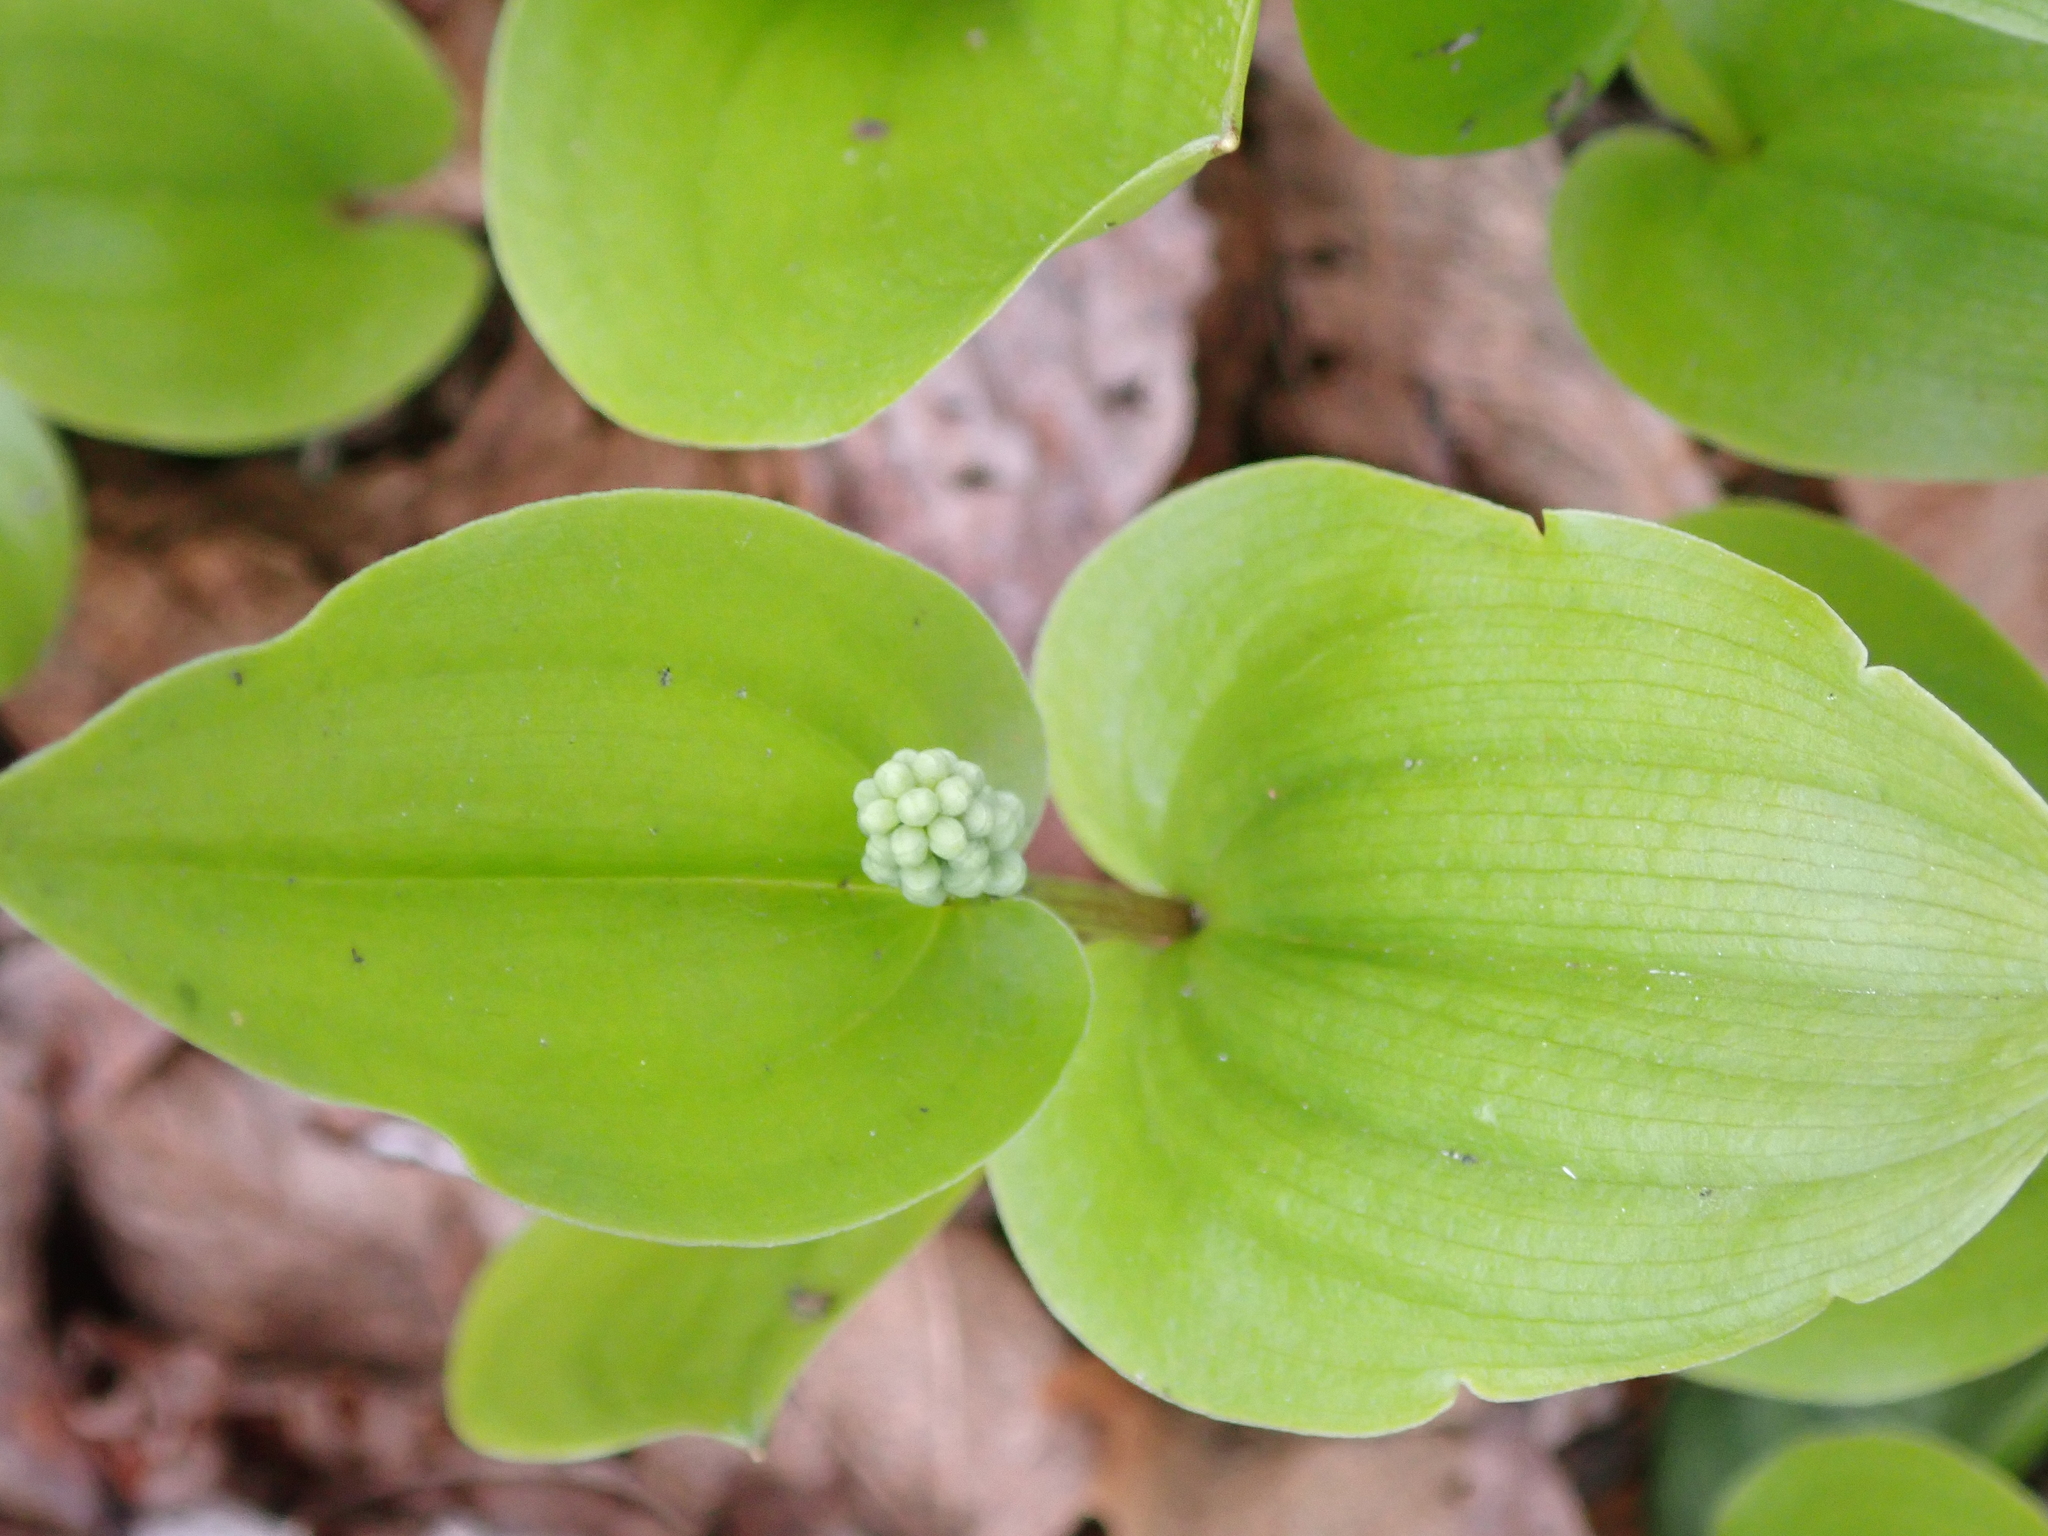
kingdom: Plantae
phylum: Tracheophyta
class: Liliopsida
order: Asparagales
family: Asparagaceae
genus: Maianthemum
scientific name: Maianthemum canadense
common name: False lily-of-the-valley
